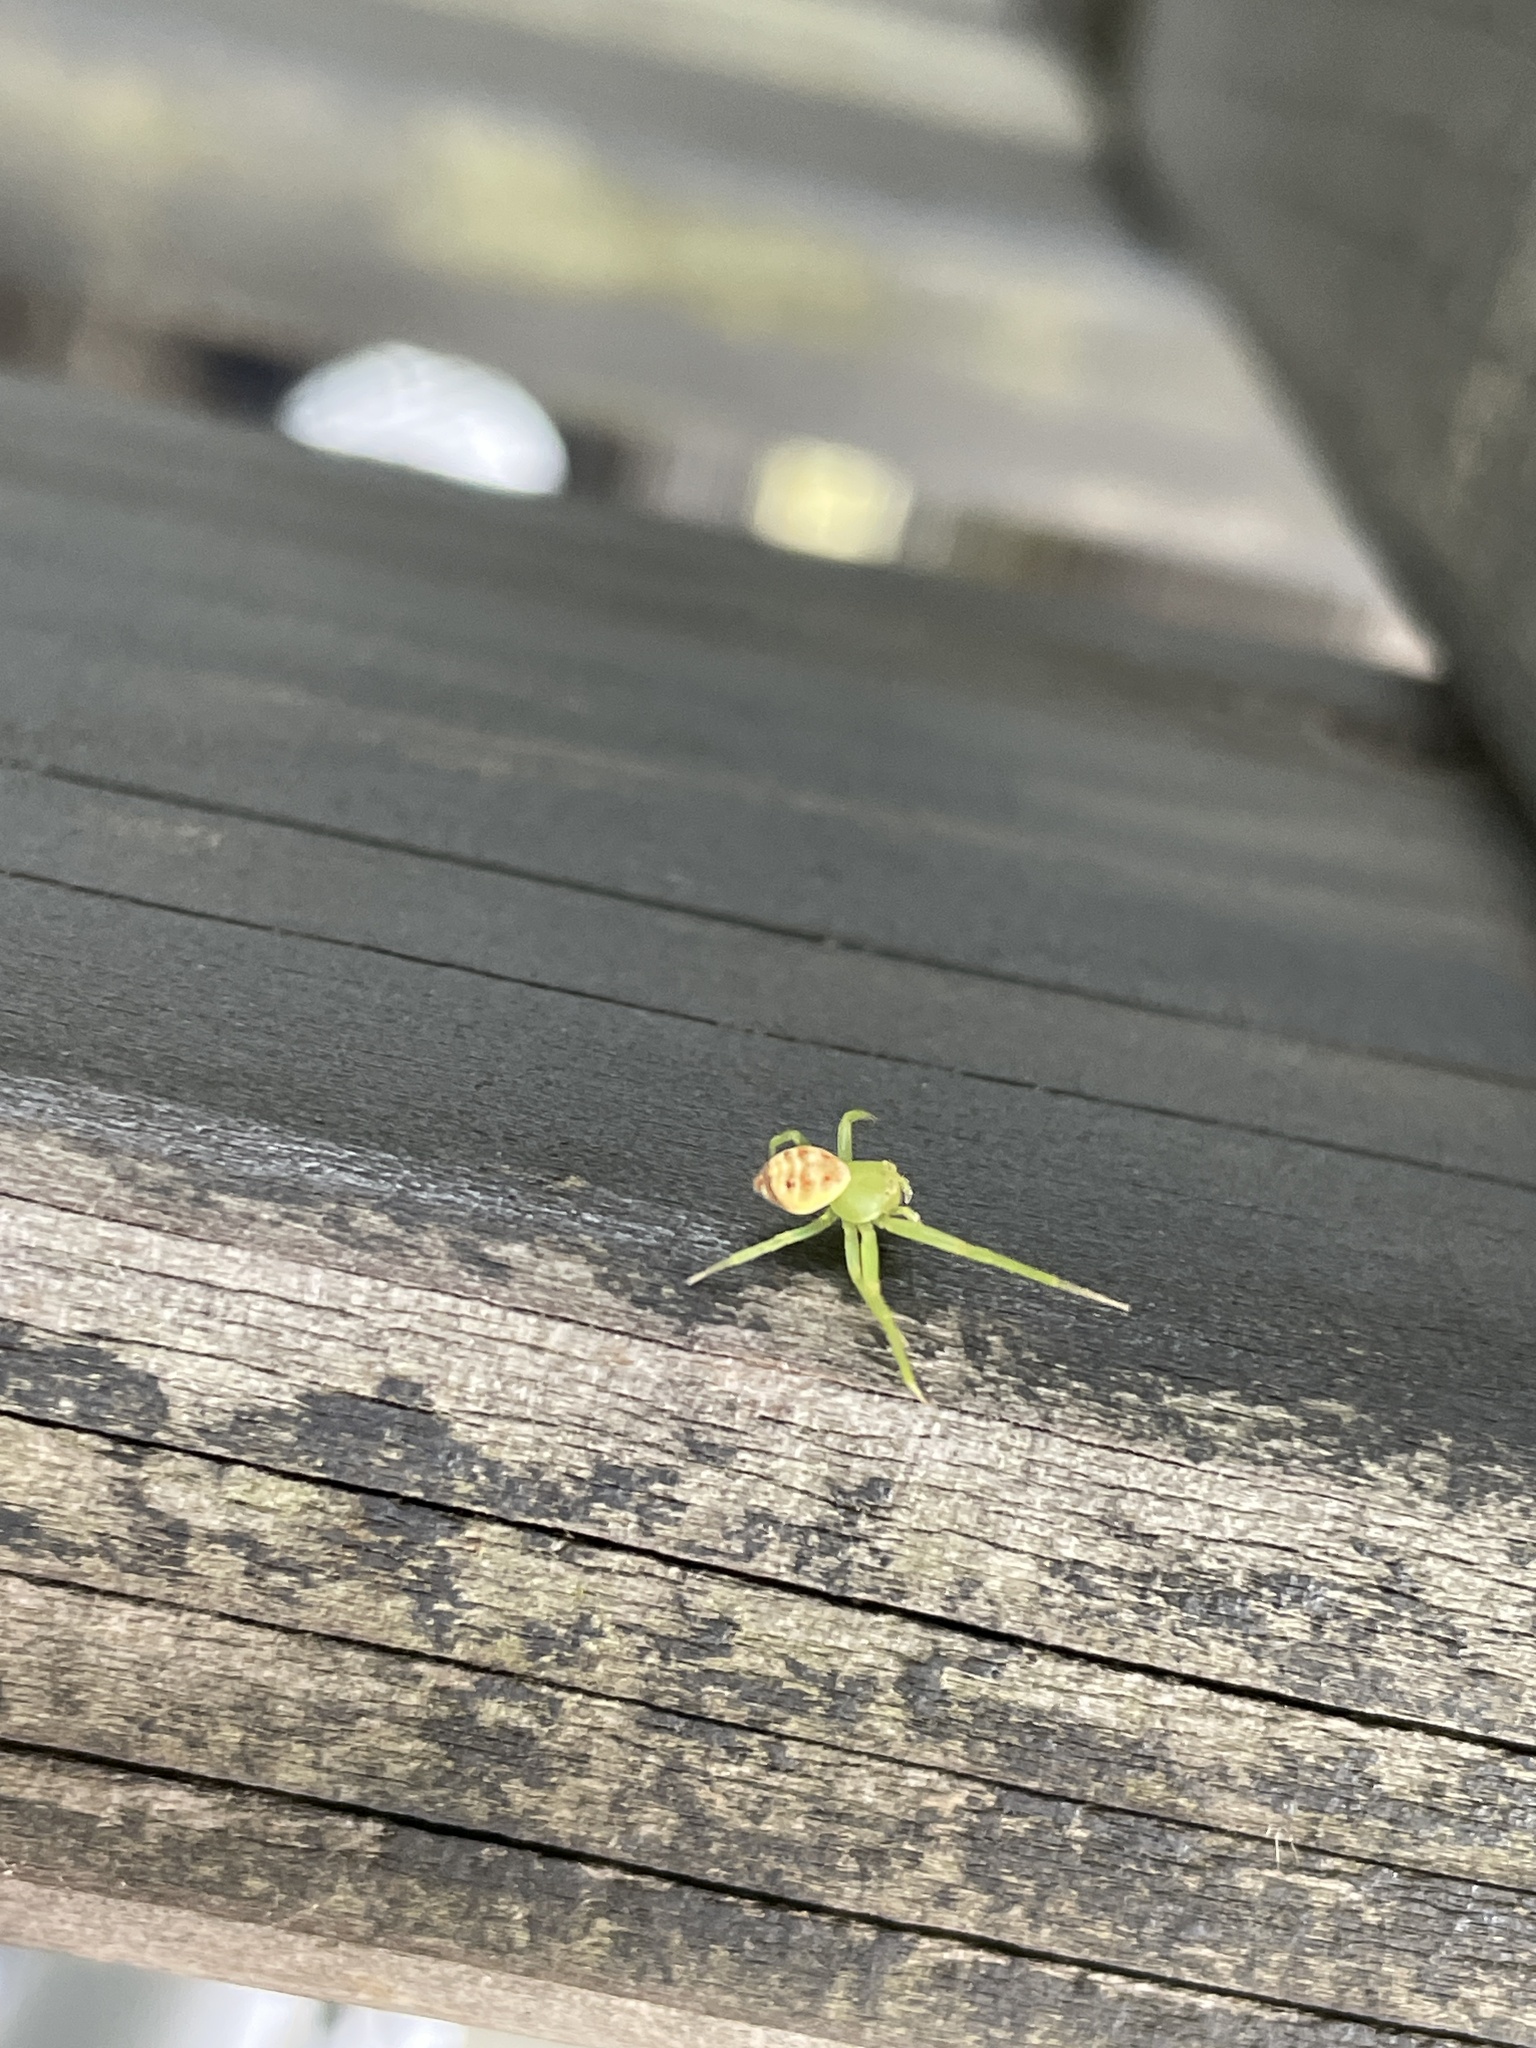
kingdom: Animalia
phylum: Arthropoda
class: Arachnida
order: Araneae
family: Thomisidae
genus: Diaea
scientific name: Diaea subdola
